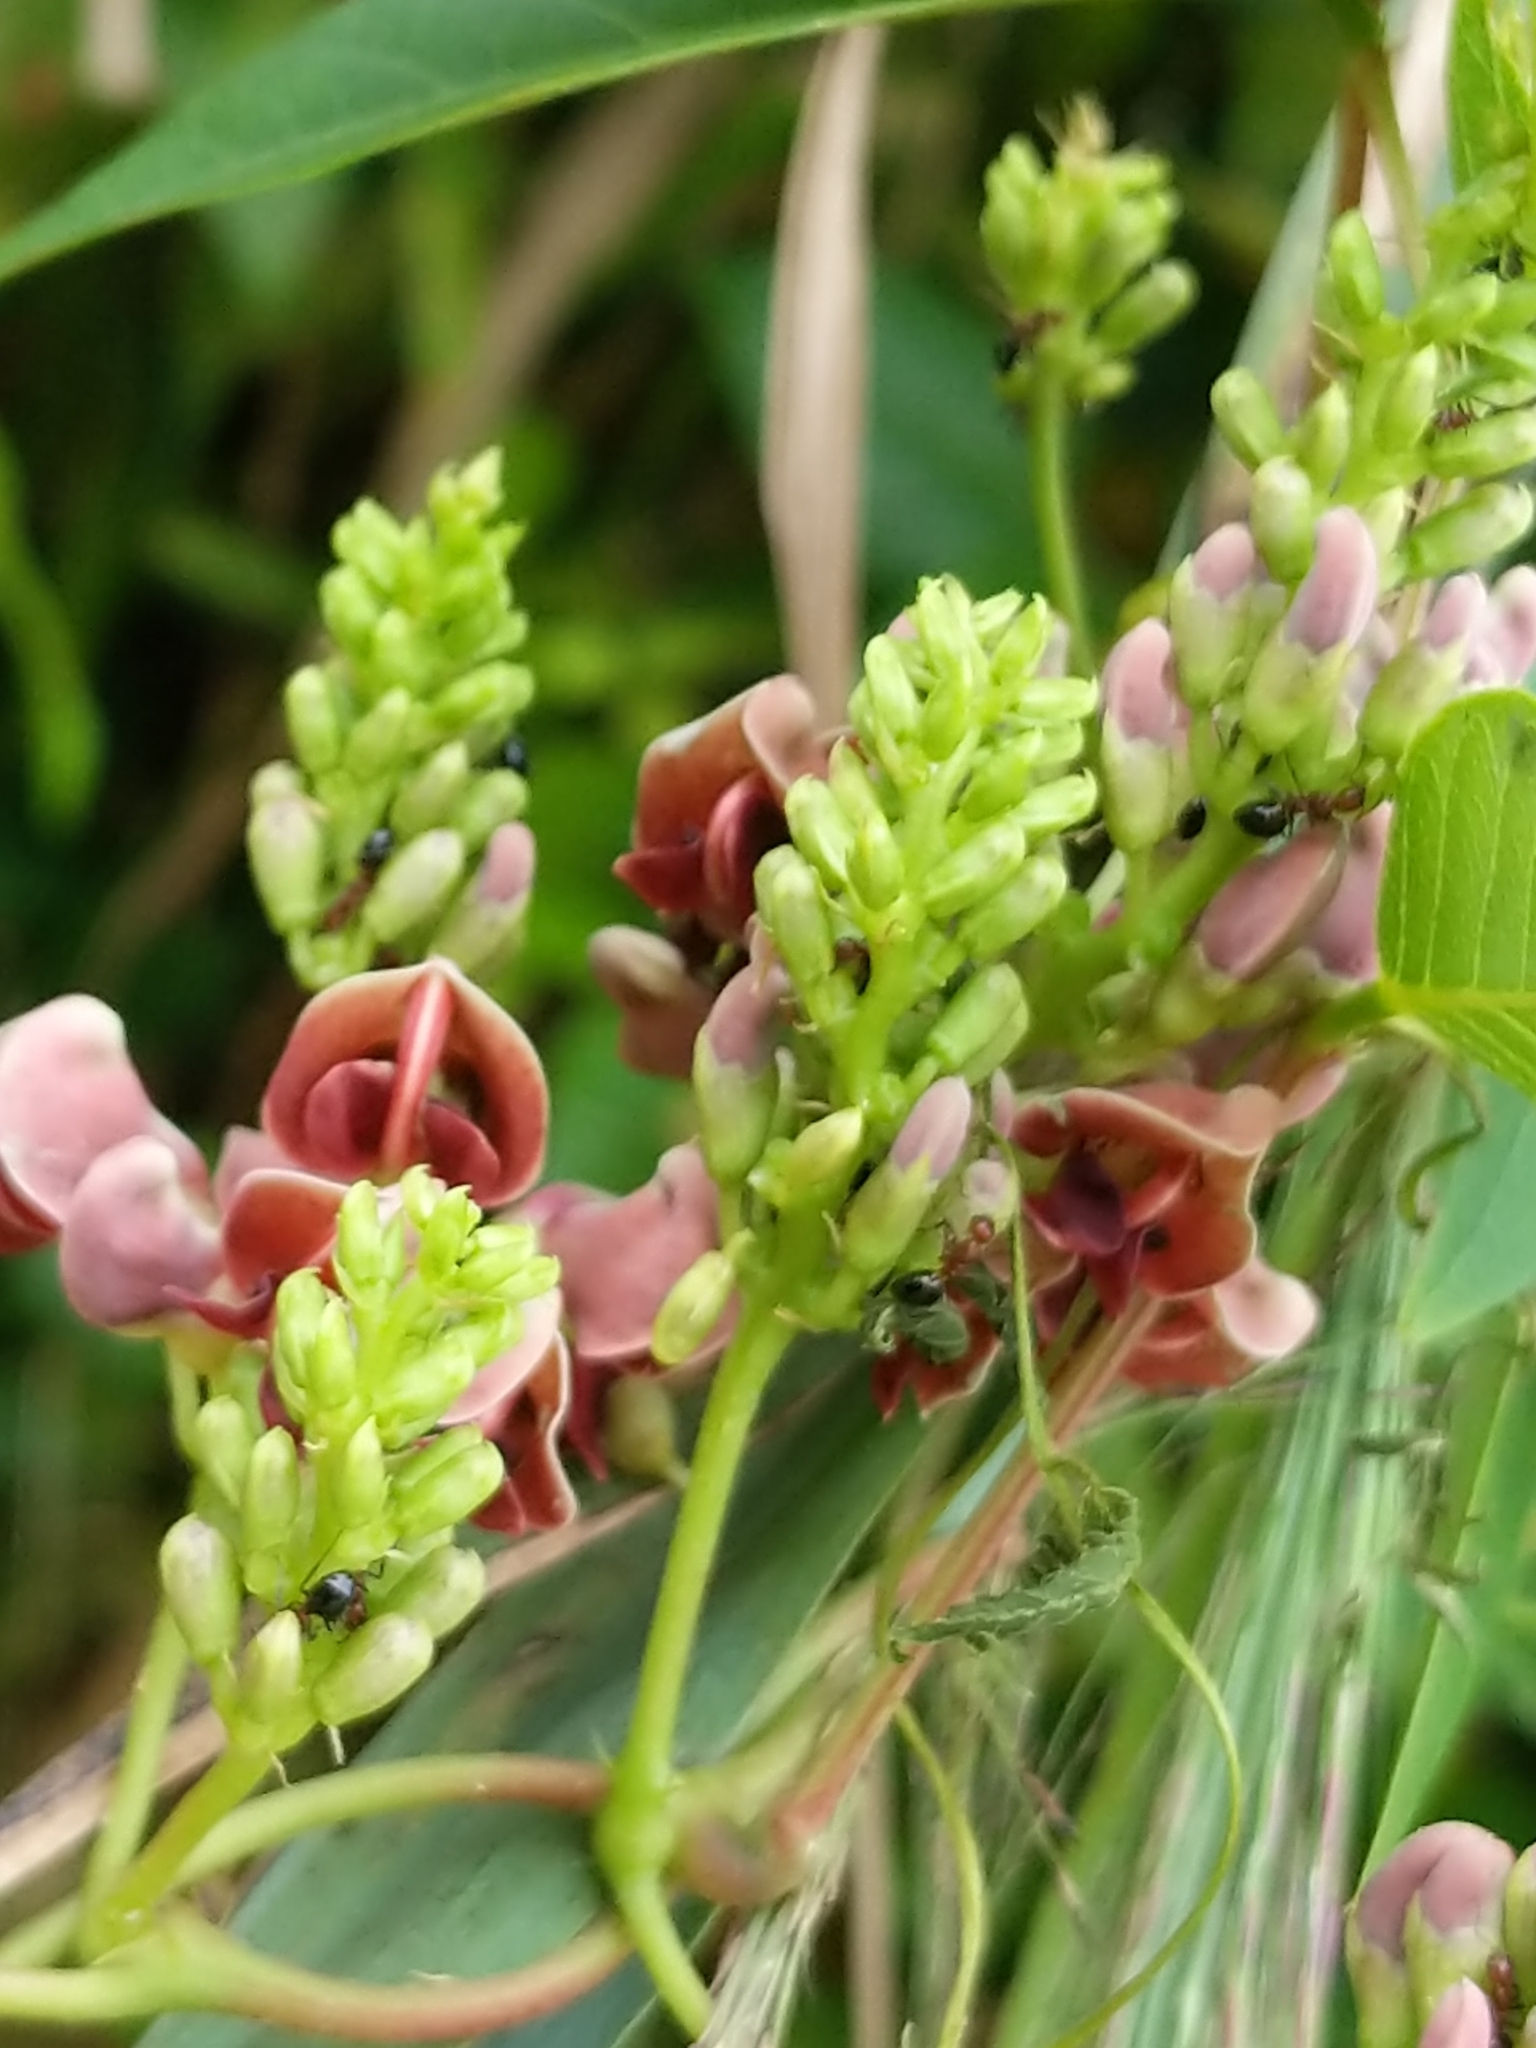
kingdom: Plantae
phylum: Tracheophyta
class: Magnoliopsida
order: Fabales
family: Fabaceae
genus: Apios
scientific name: Apios americana
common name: American potato-bean
